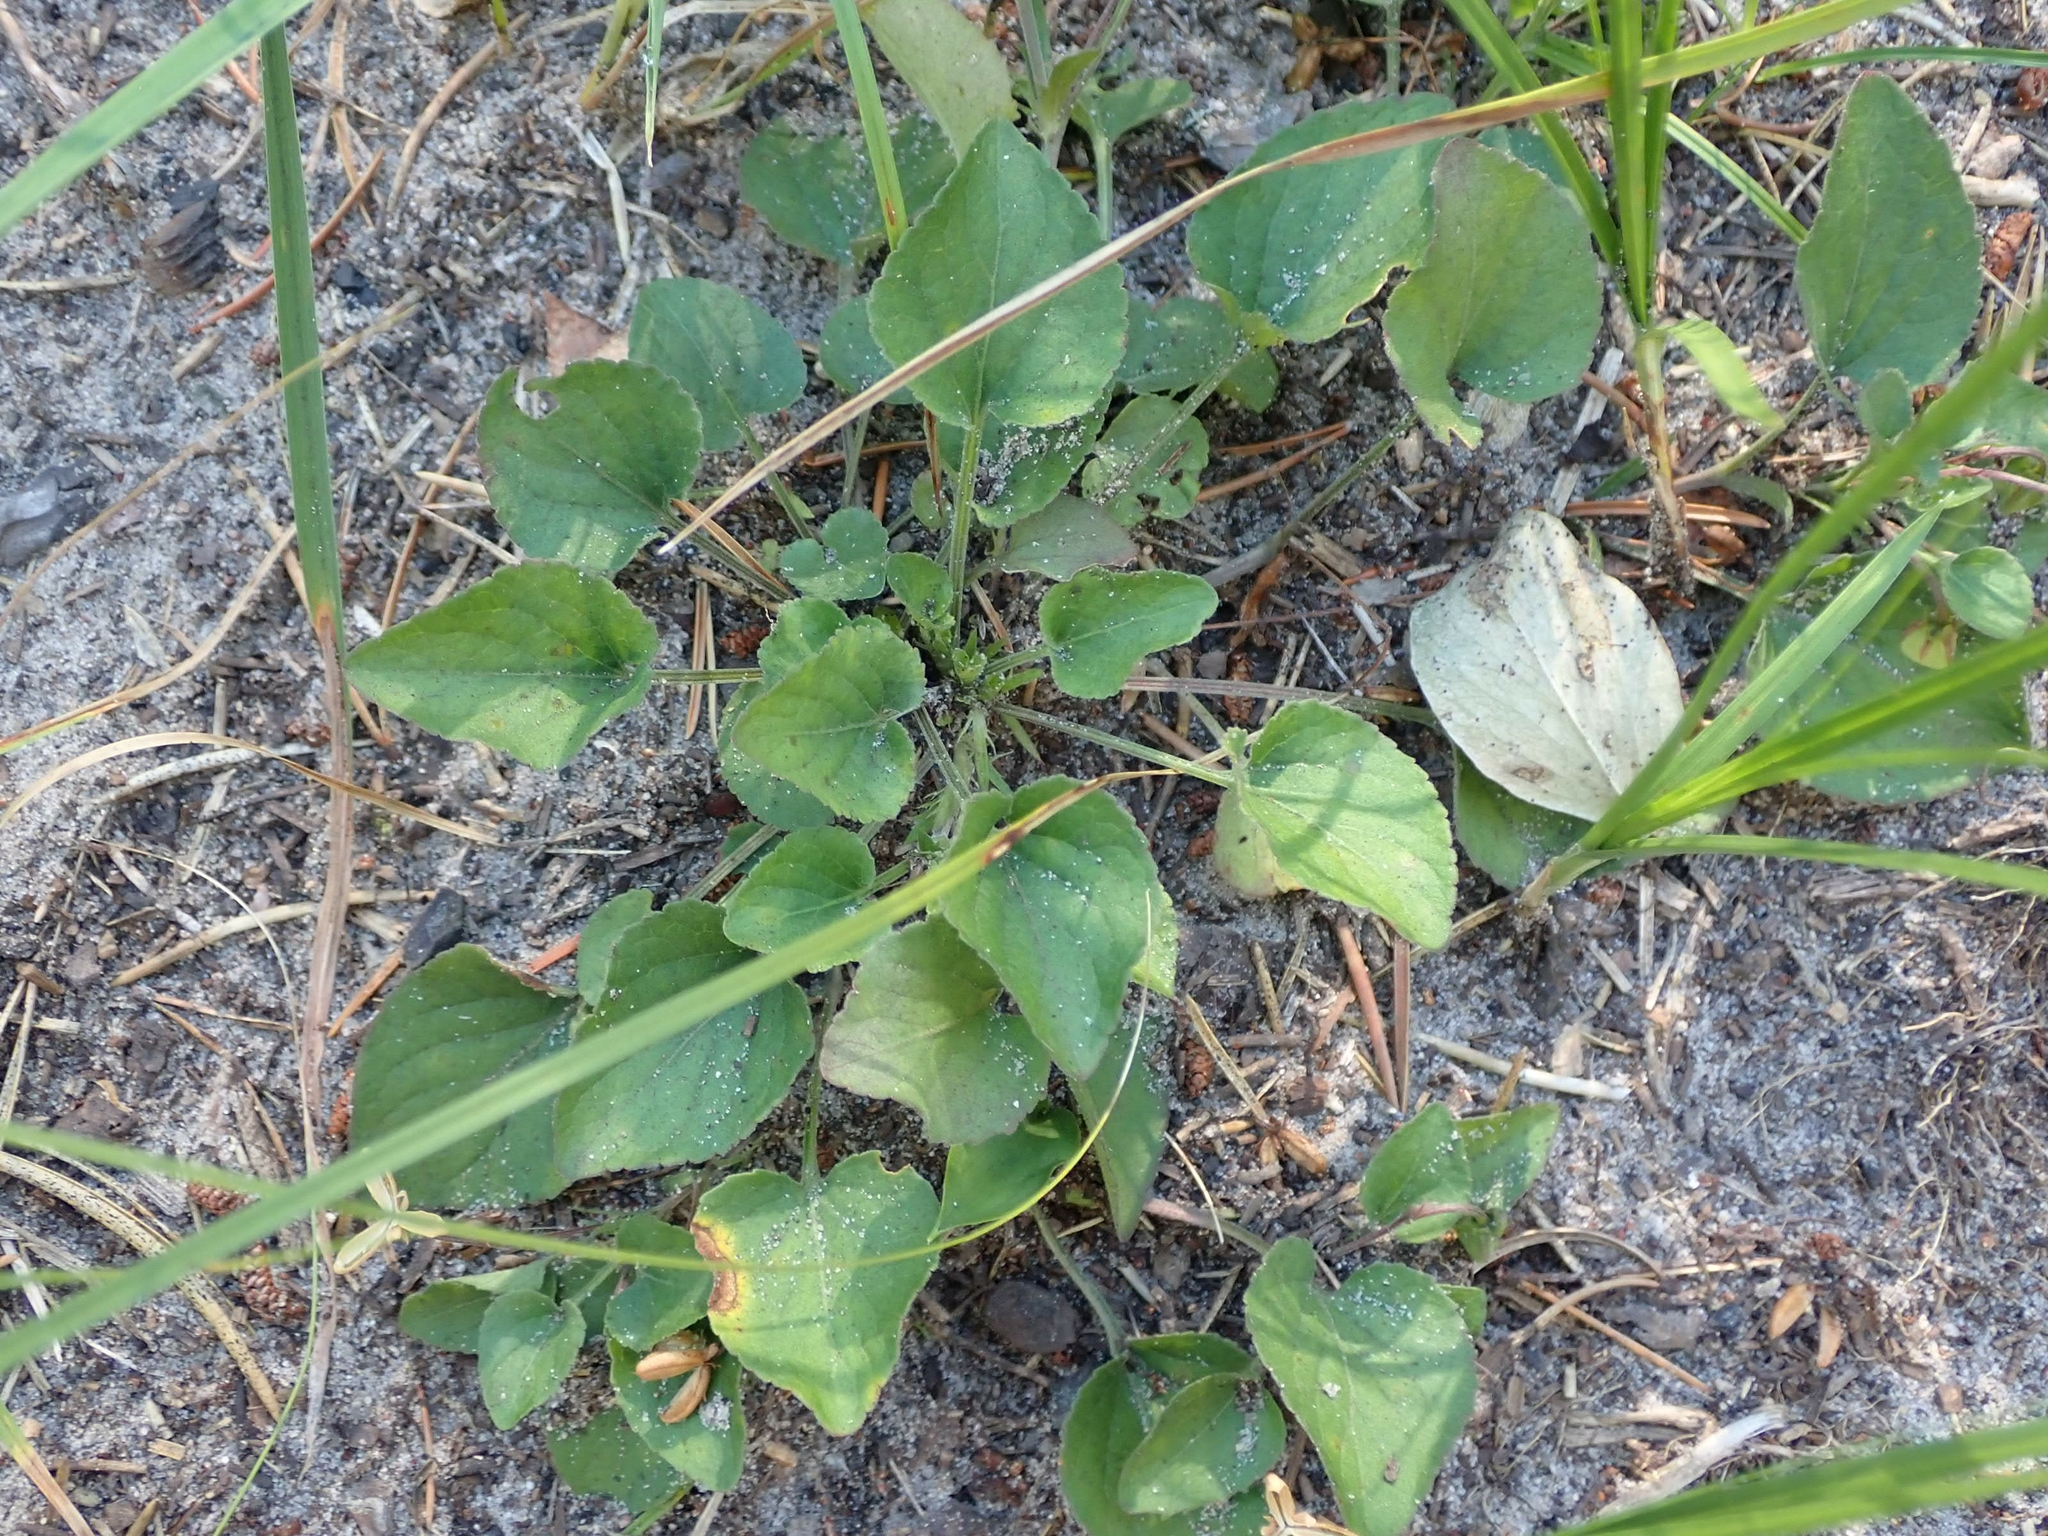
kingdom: Plantae
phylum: Tracheophyta
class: Magnoliopsida
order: Malpighiales
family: Violaceae
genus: Viola
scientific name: Viola adunca
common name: Sand violet
